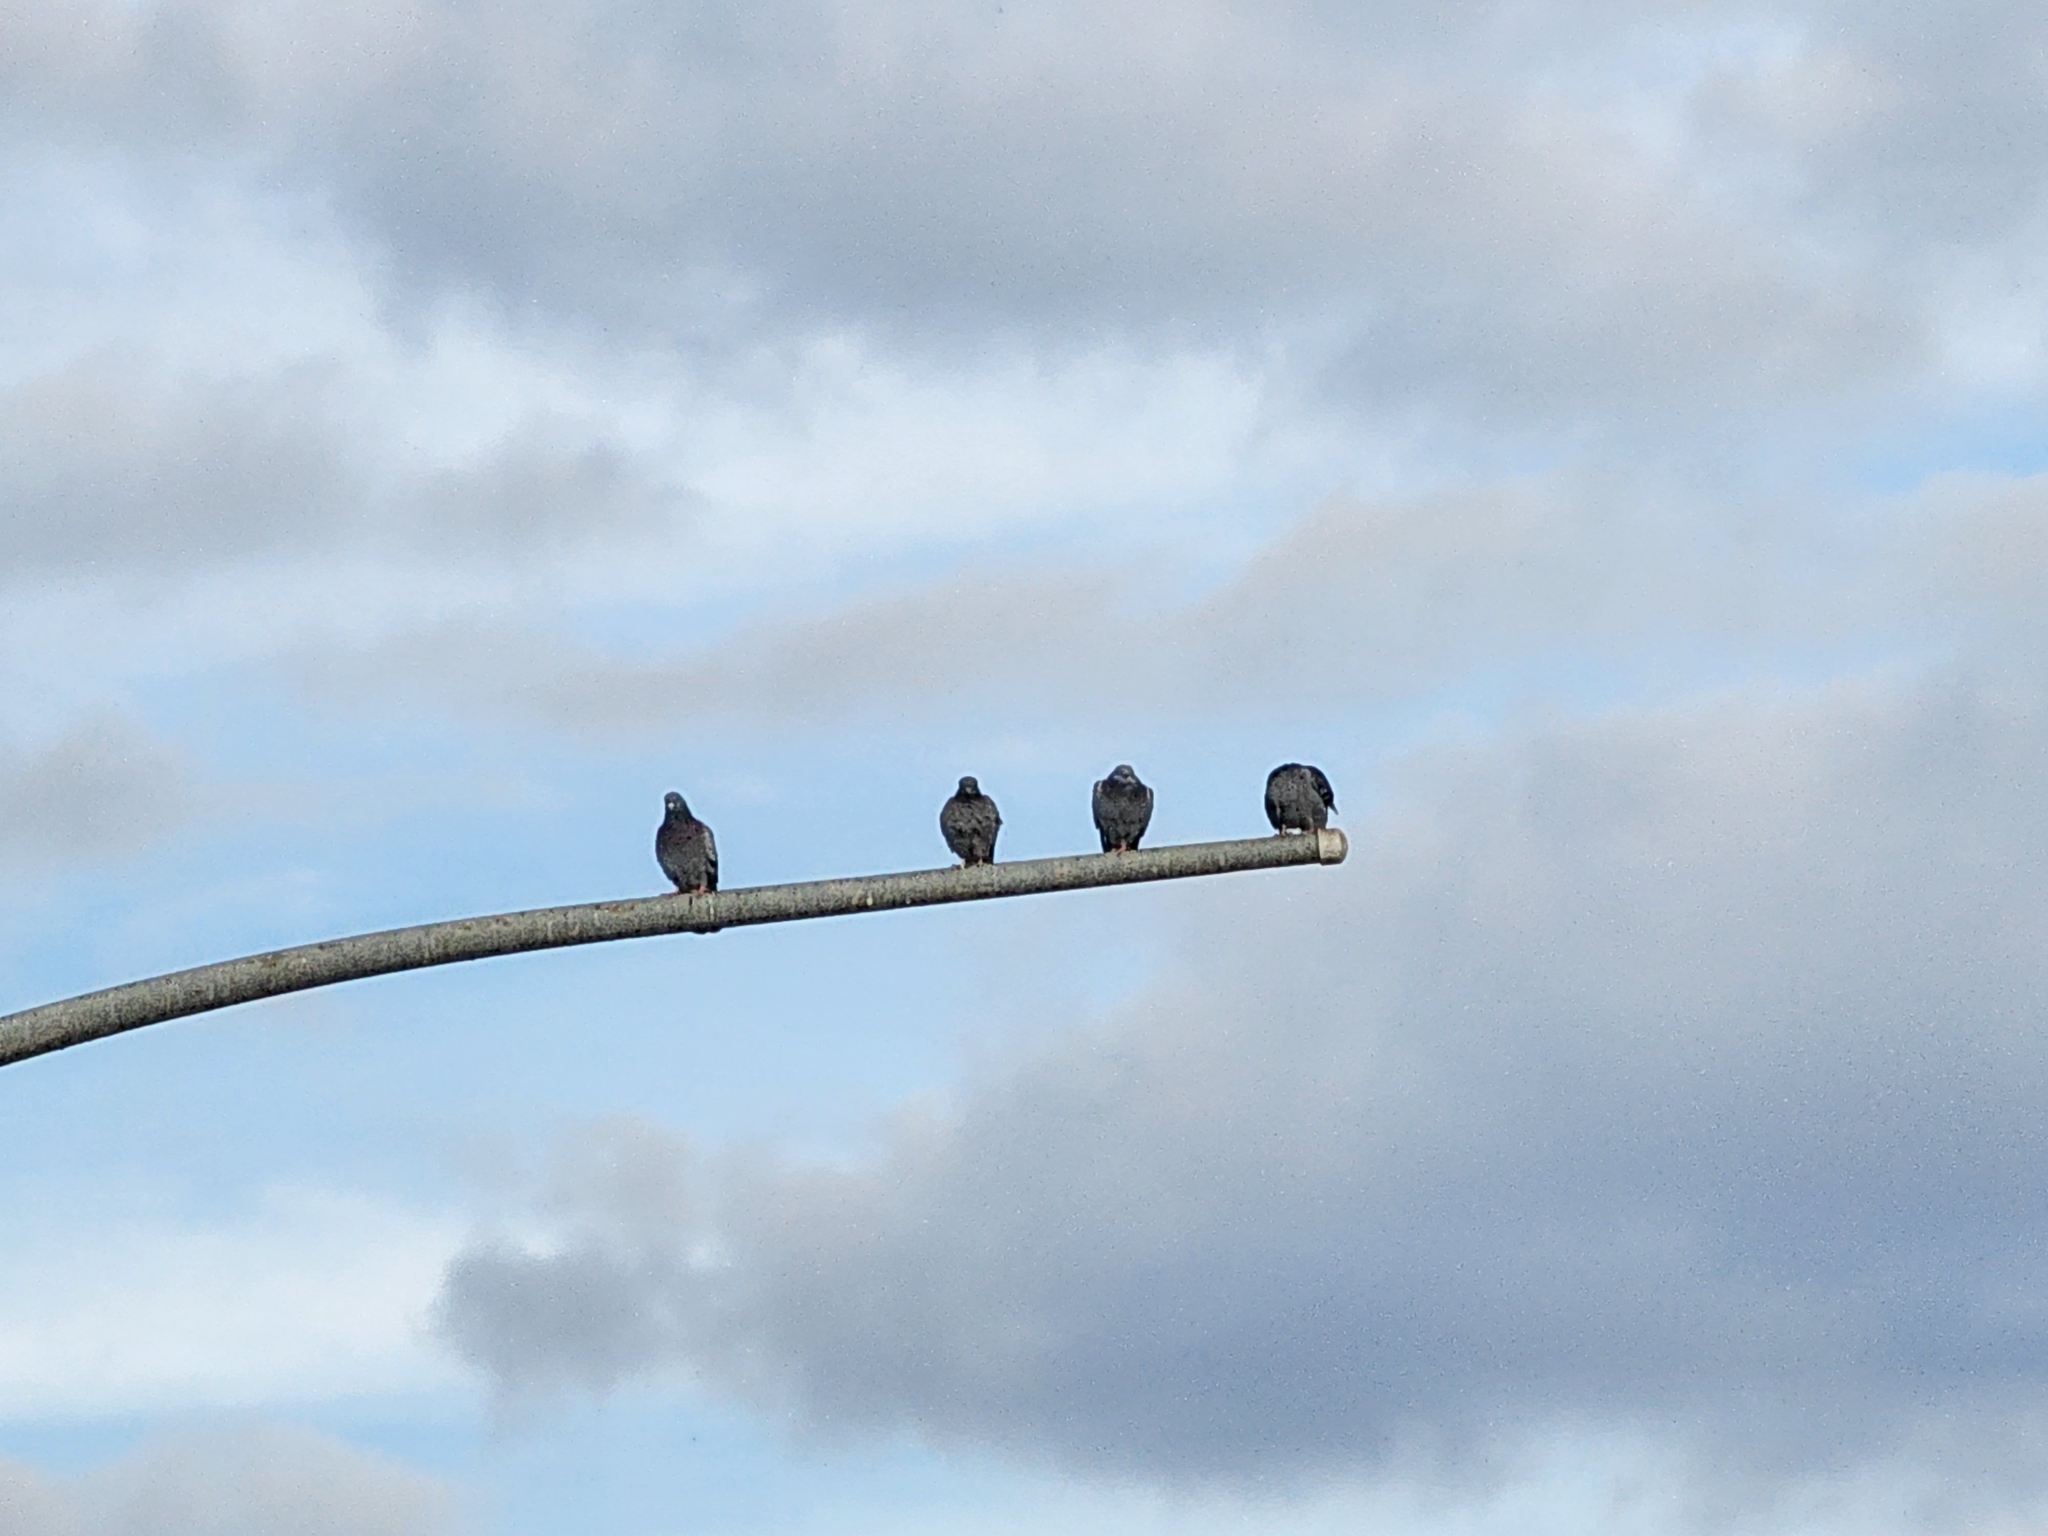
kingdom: Animalia
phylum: Chordata
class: Aves
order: Columbiformes
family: Columbidae
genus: Columba
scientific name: Columba livia
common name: Rock pigeon
